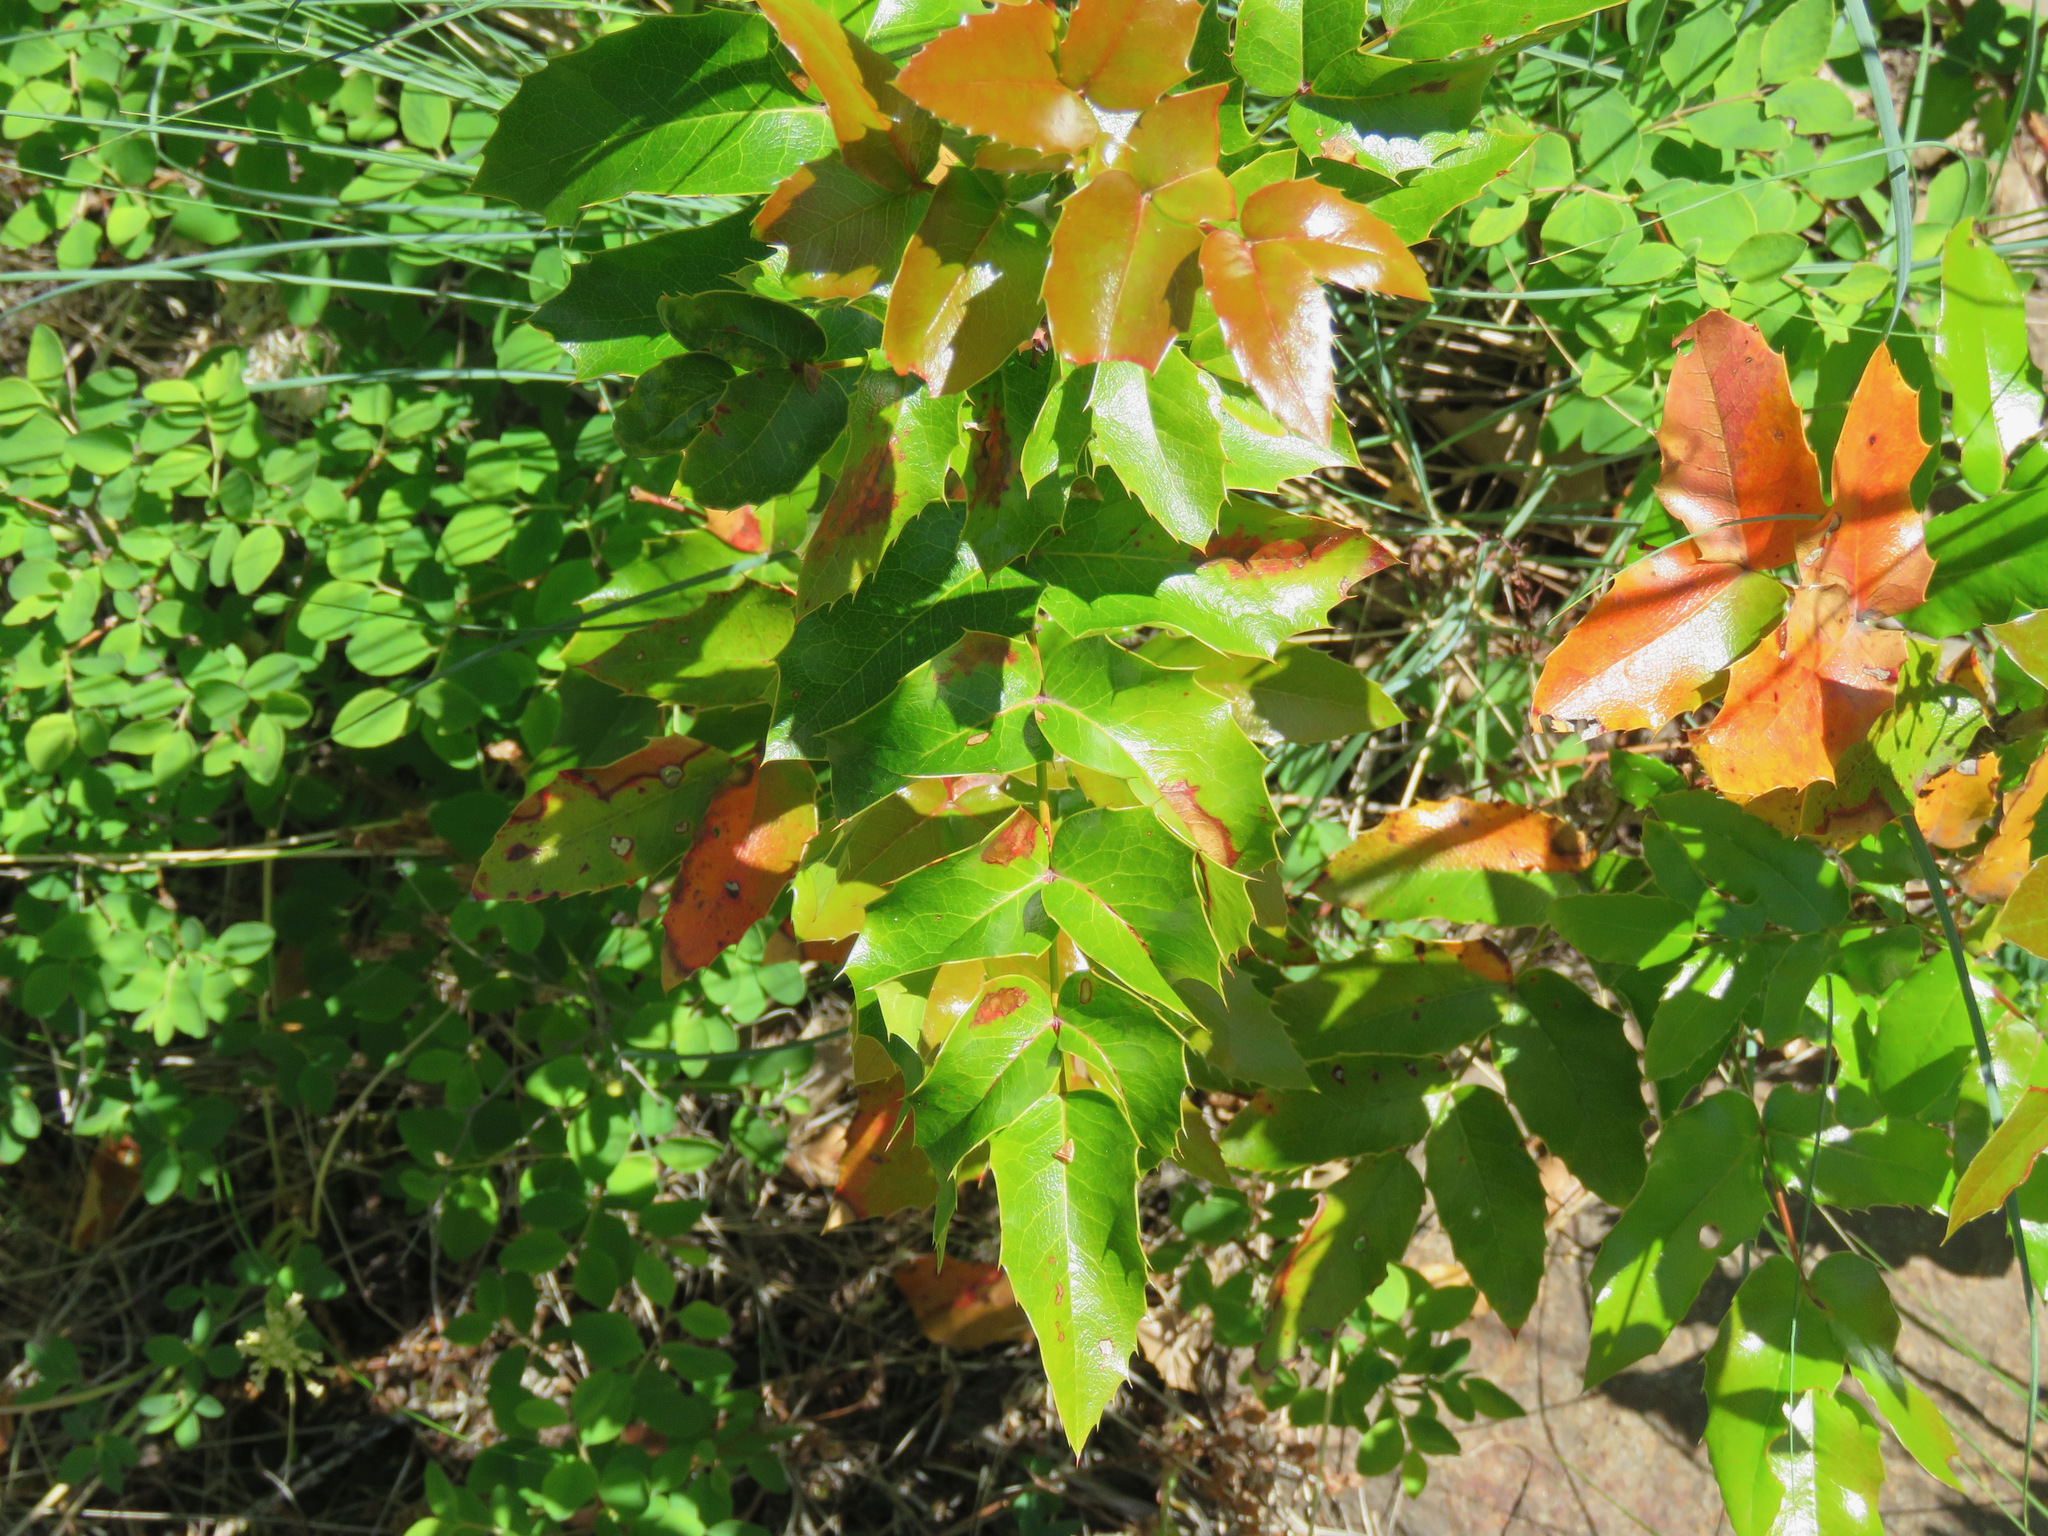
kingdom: Plantae
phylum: Tracheophyta
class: Magnoliopsida
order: Ranunculales
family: Berberidaceae
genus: Mahonia
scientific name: Mahonia aquifolium
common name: Oregon-grape
